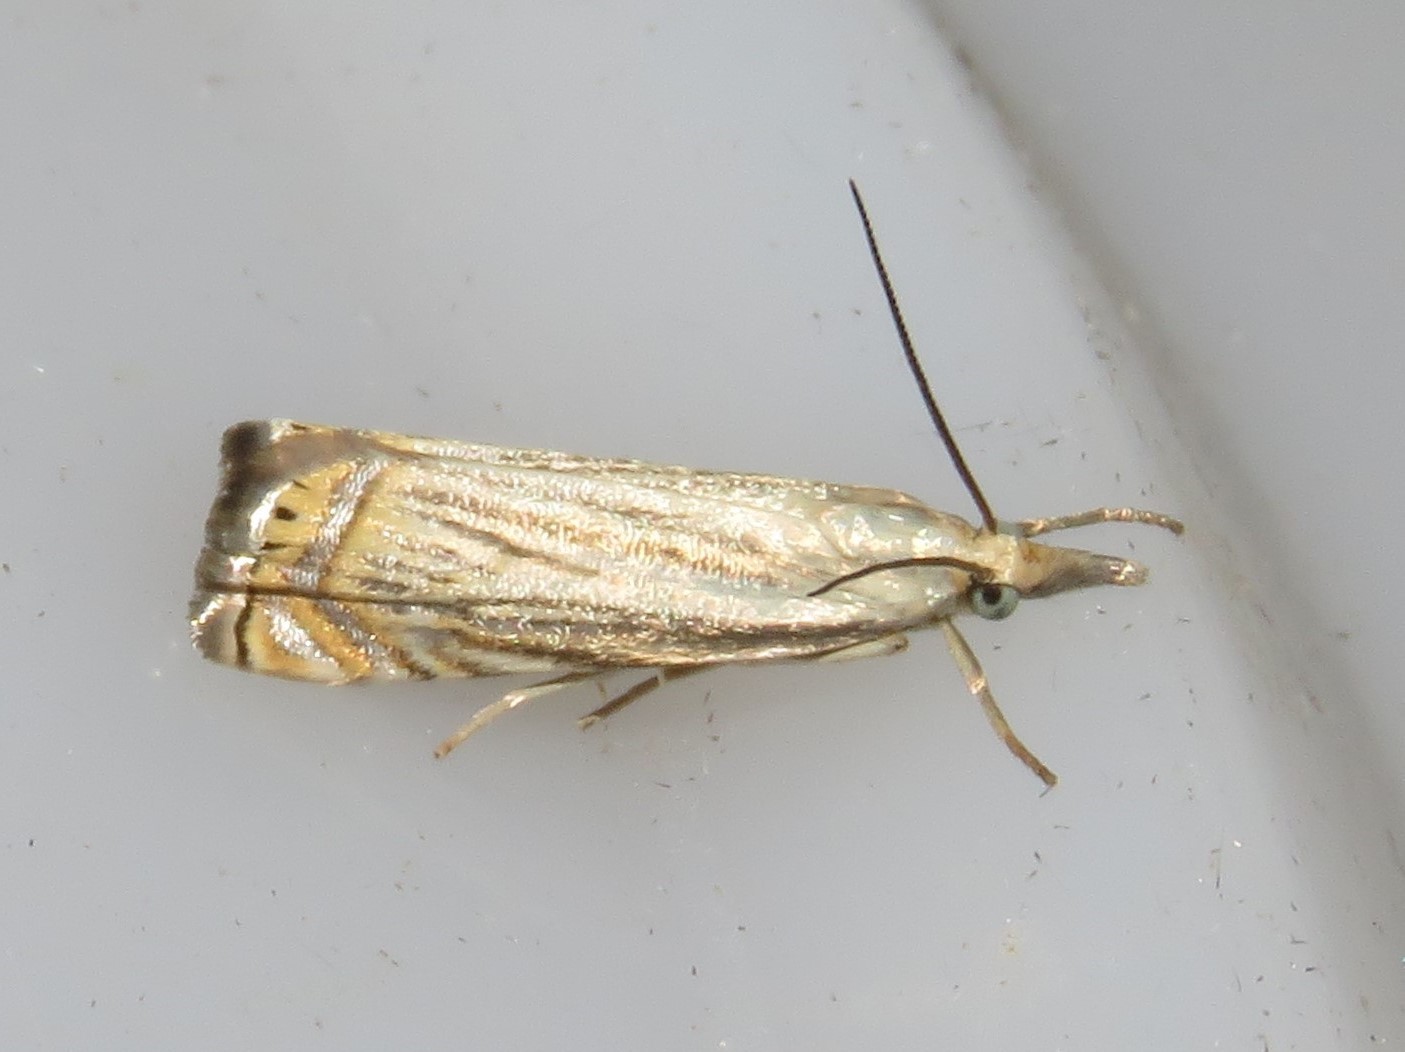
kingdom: Animalia
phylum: Arthropoda
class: Insecta
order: Lepidoptera
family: Crambidae
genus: Chrysoteuchia
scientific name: Chrysoteuchia topiarius
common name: Topiary grass-veneer
